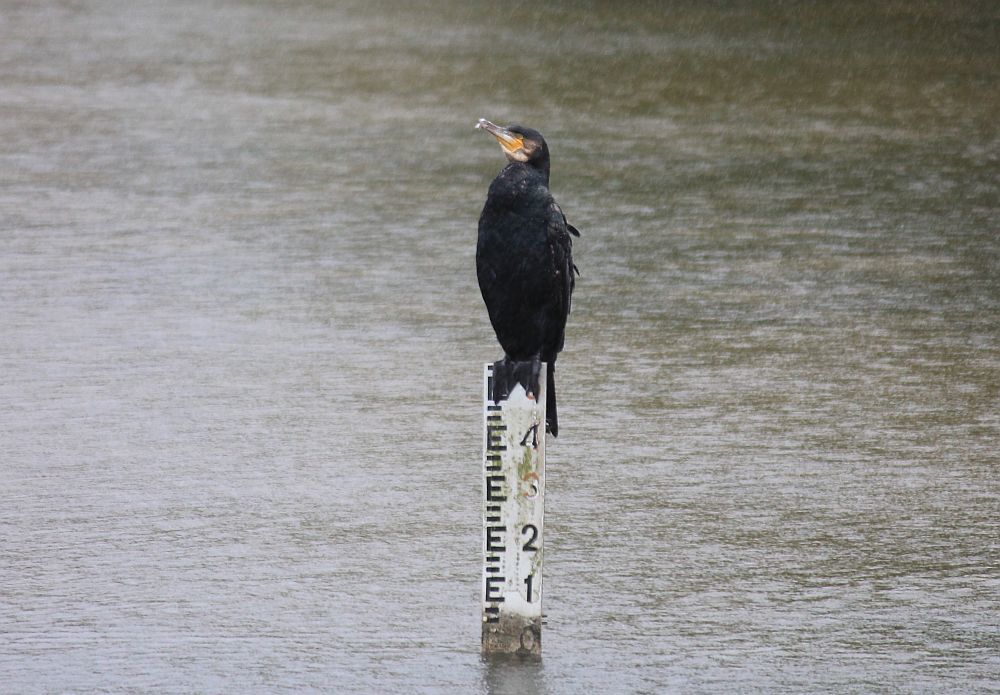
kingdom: Animalia
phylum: Chordata
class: Aves
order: Suliformes
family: Phalacrocoracidae
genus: Phalacrocorax
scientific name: Phalacrocorax carbo
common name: Great cormorant
